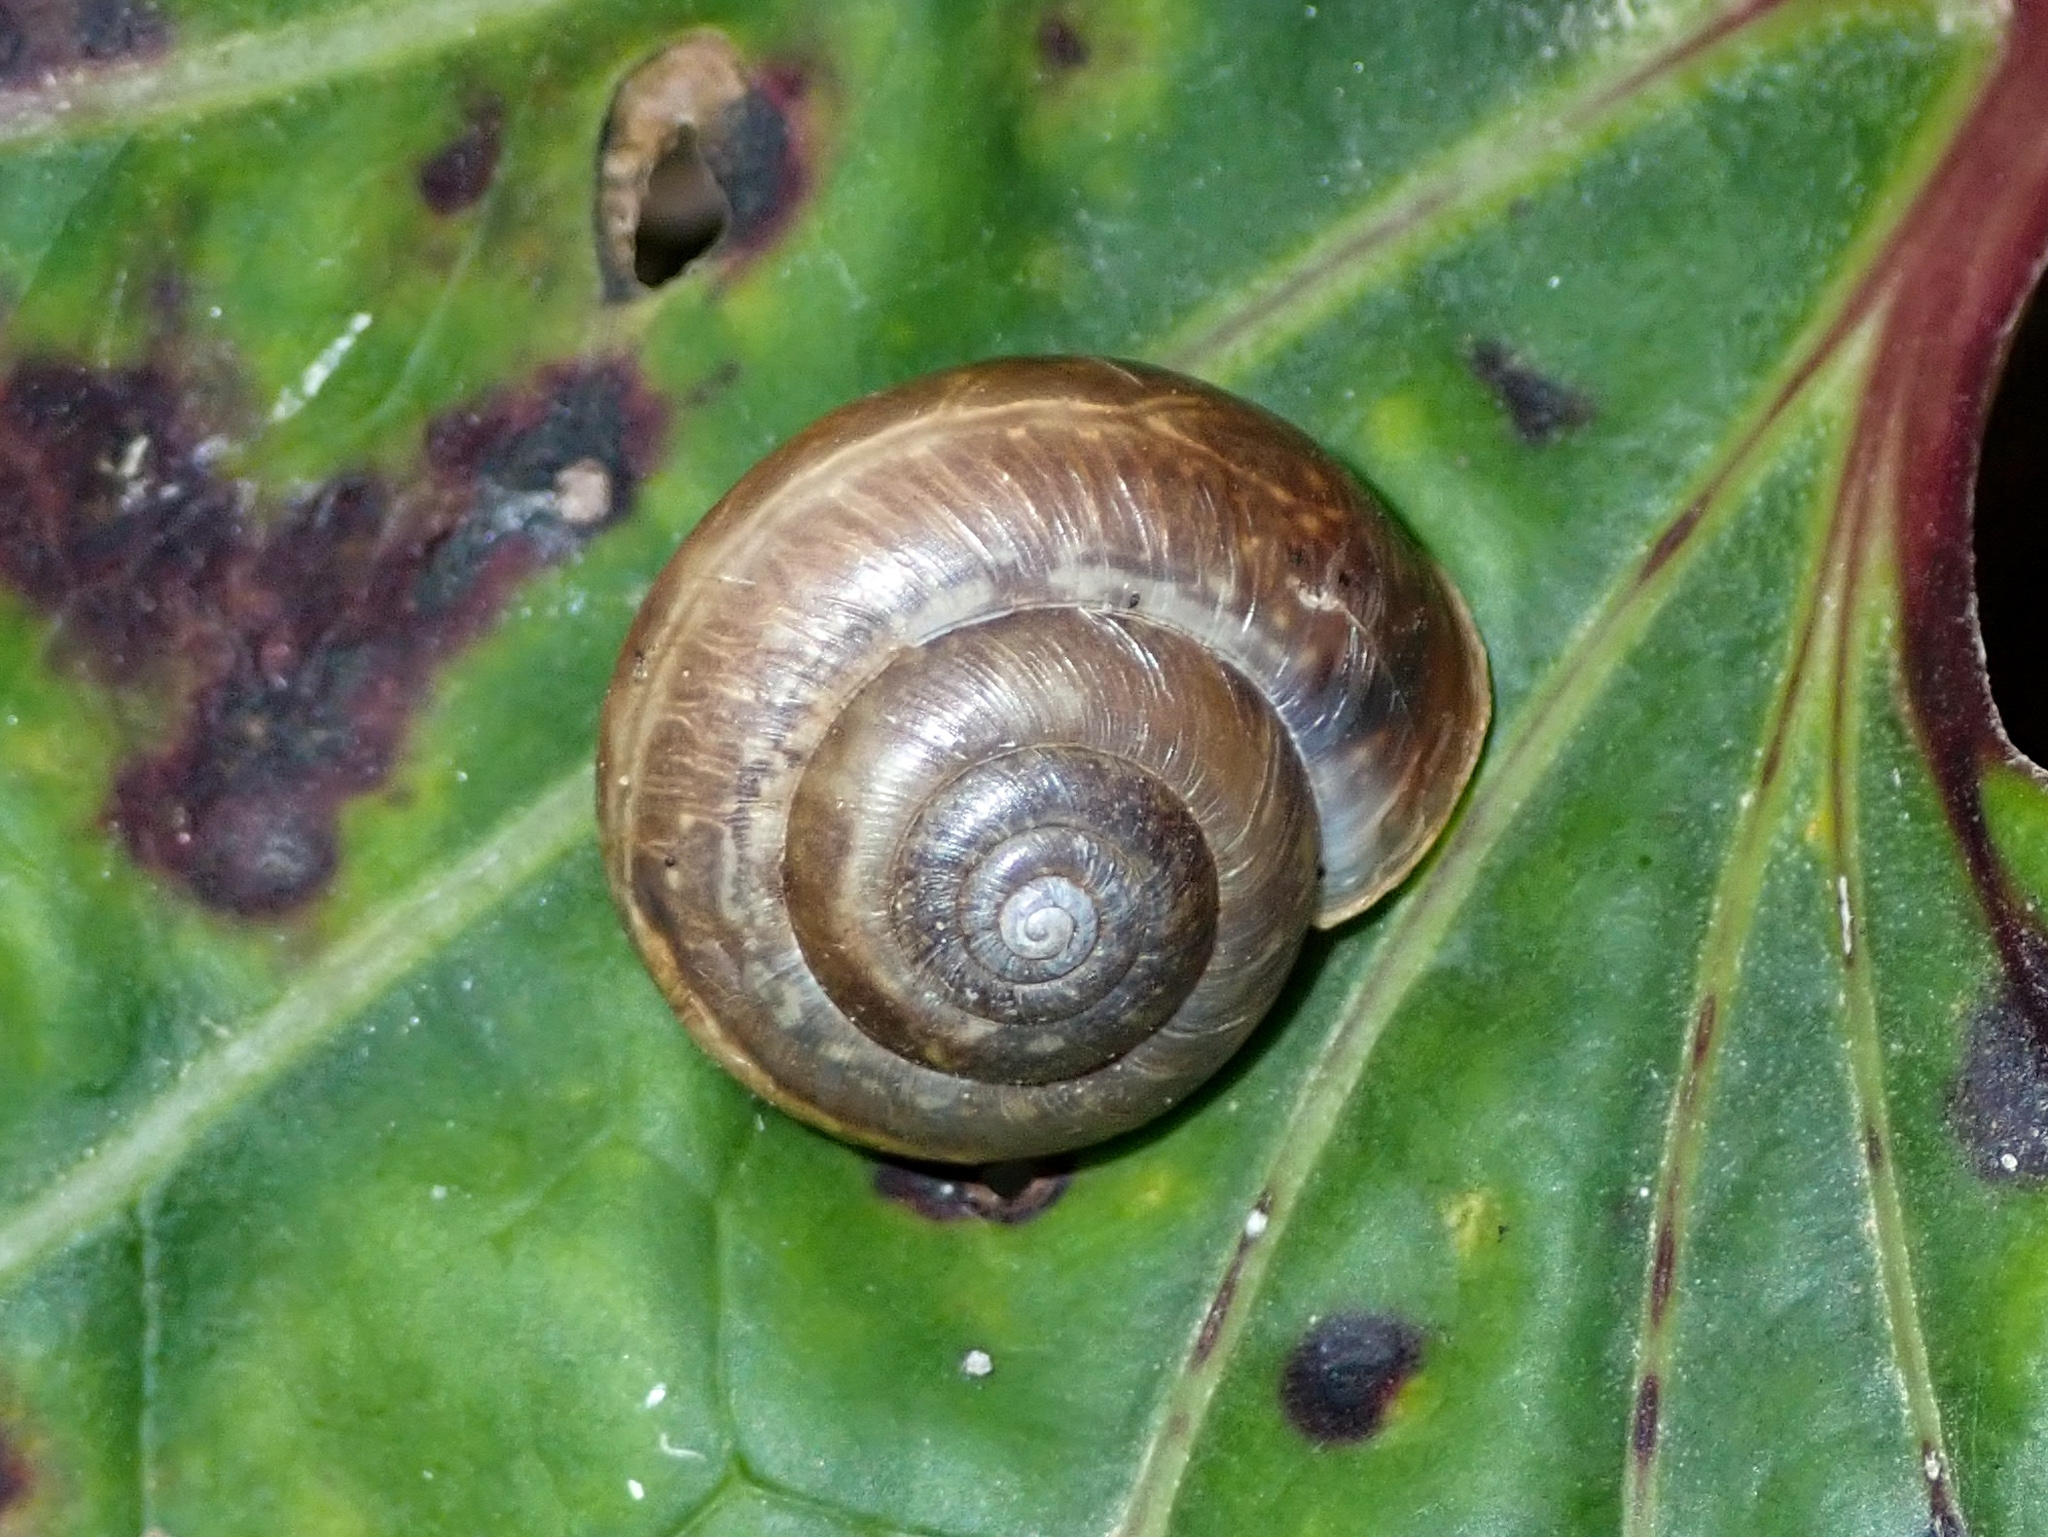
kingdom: Animalia
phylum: Mollusca
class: Gastropoda
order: Stylommatophora
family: Hygromiidae
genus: Monacha
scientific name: Monacha cantiana
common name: Kentish snail
